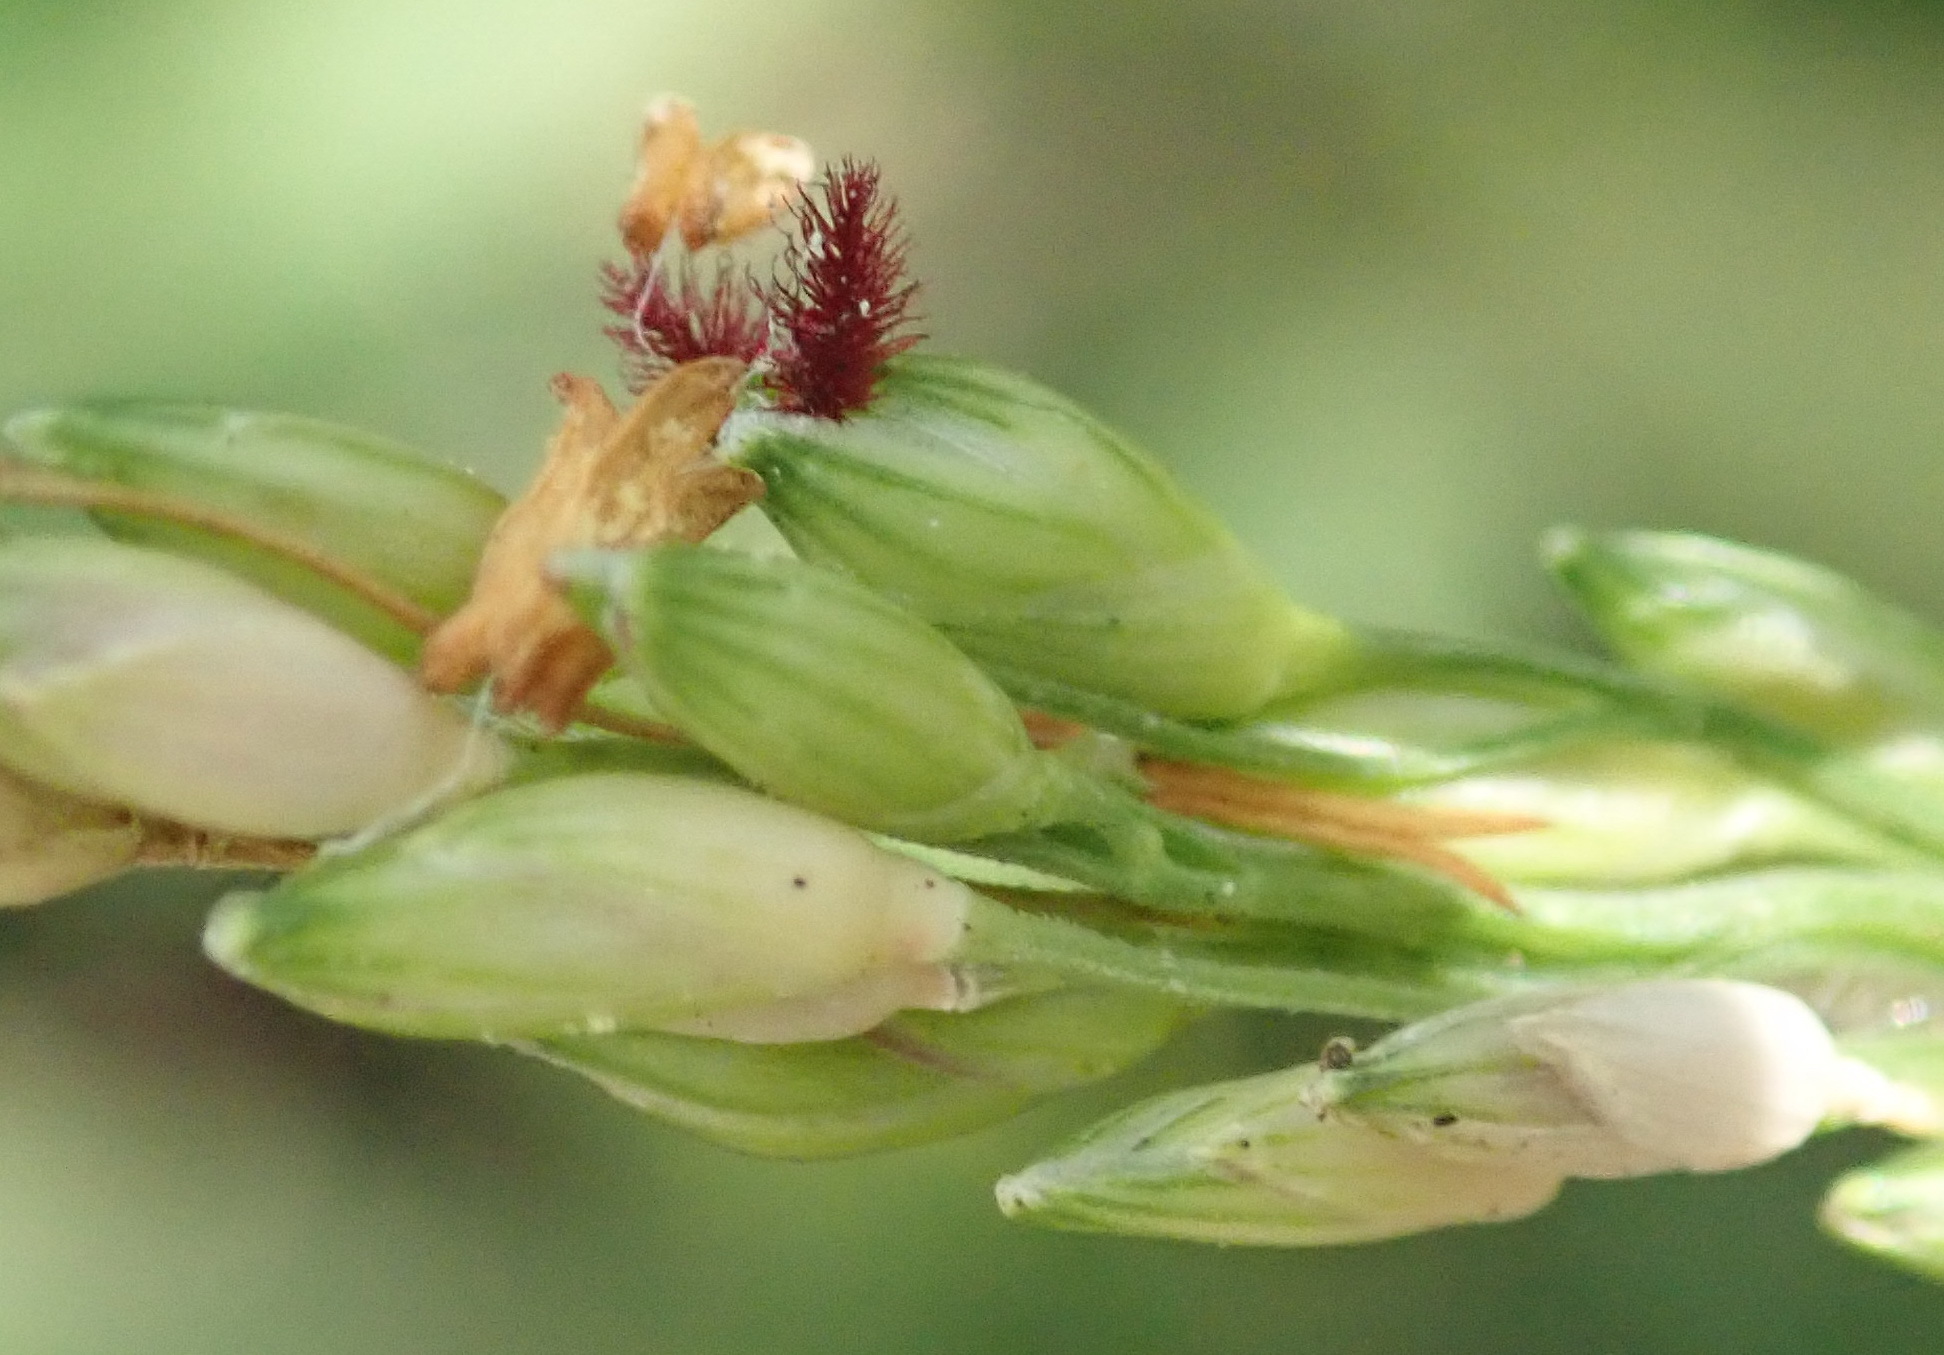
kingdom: Plantae
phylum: Tracheophyta
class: Liliopsida
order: Poales
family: Poaceae
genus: Panicum
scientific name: Panicum deustum
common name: Reed panicum
